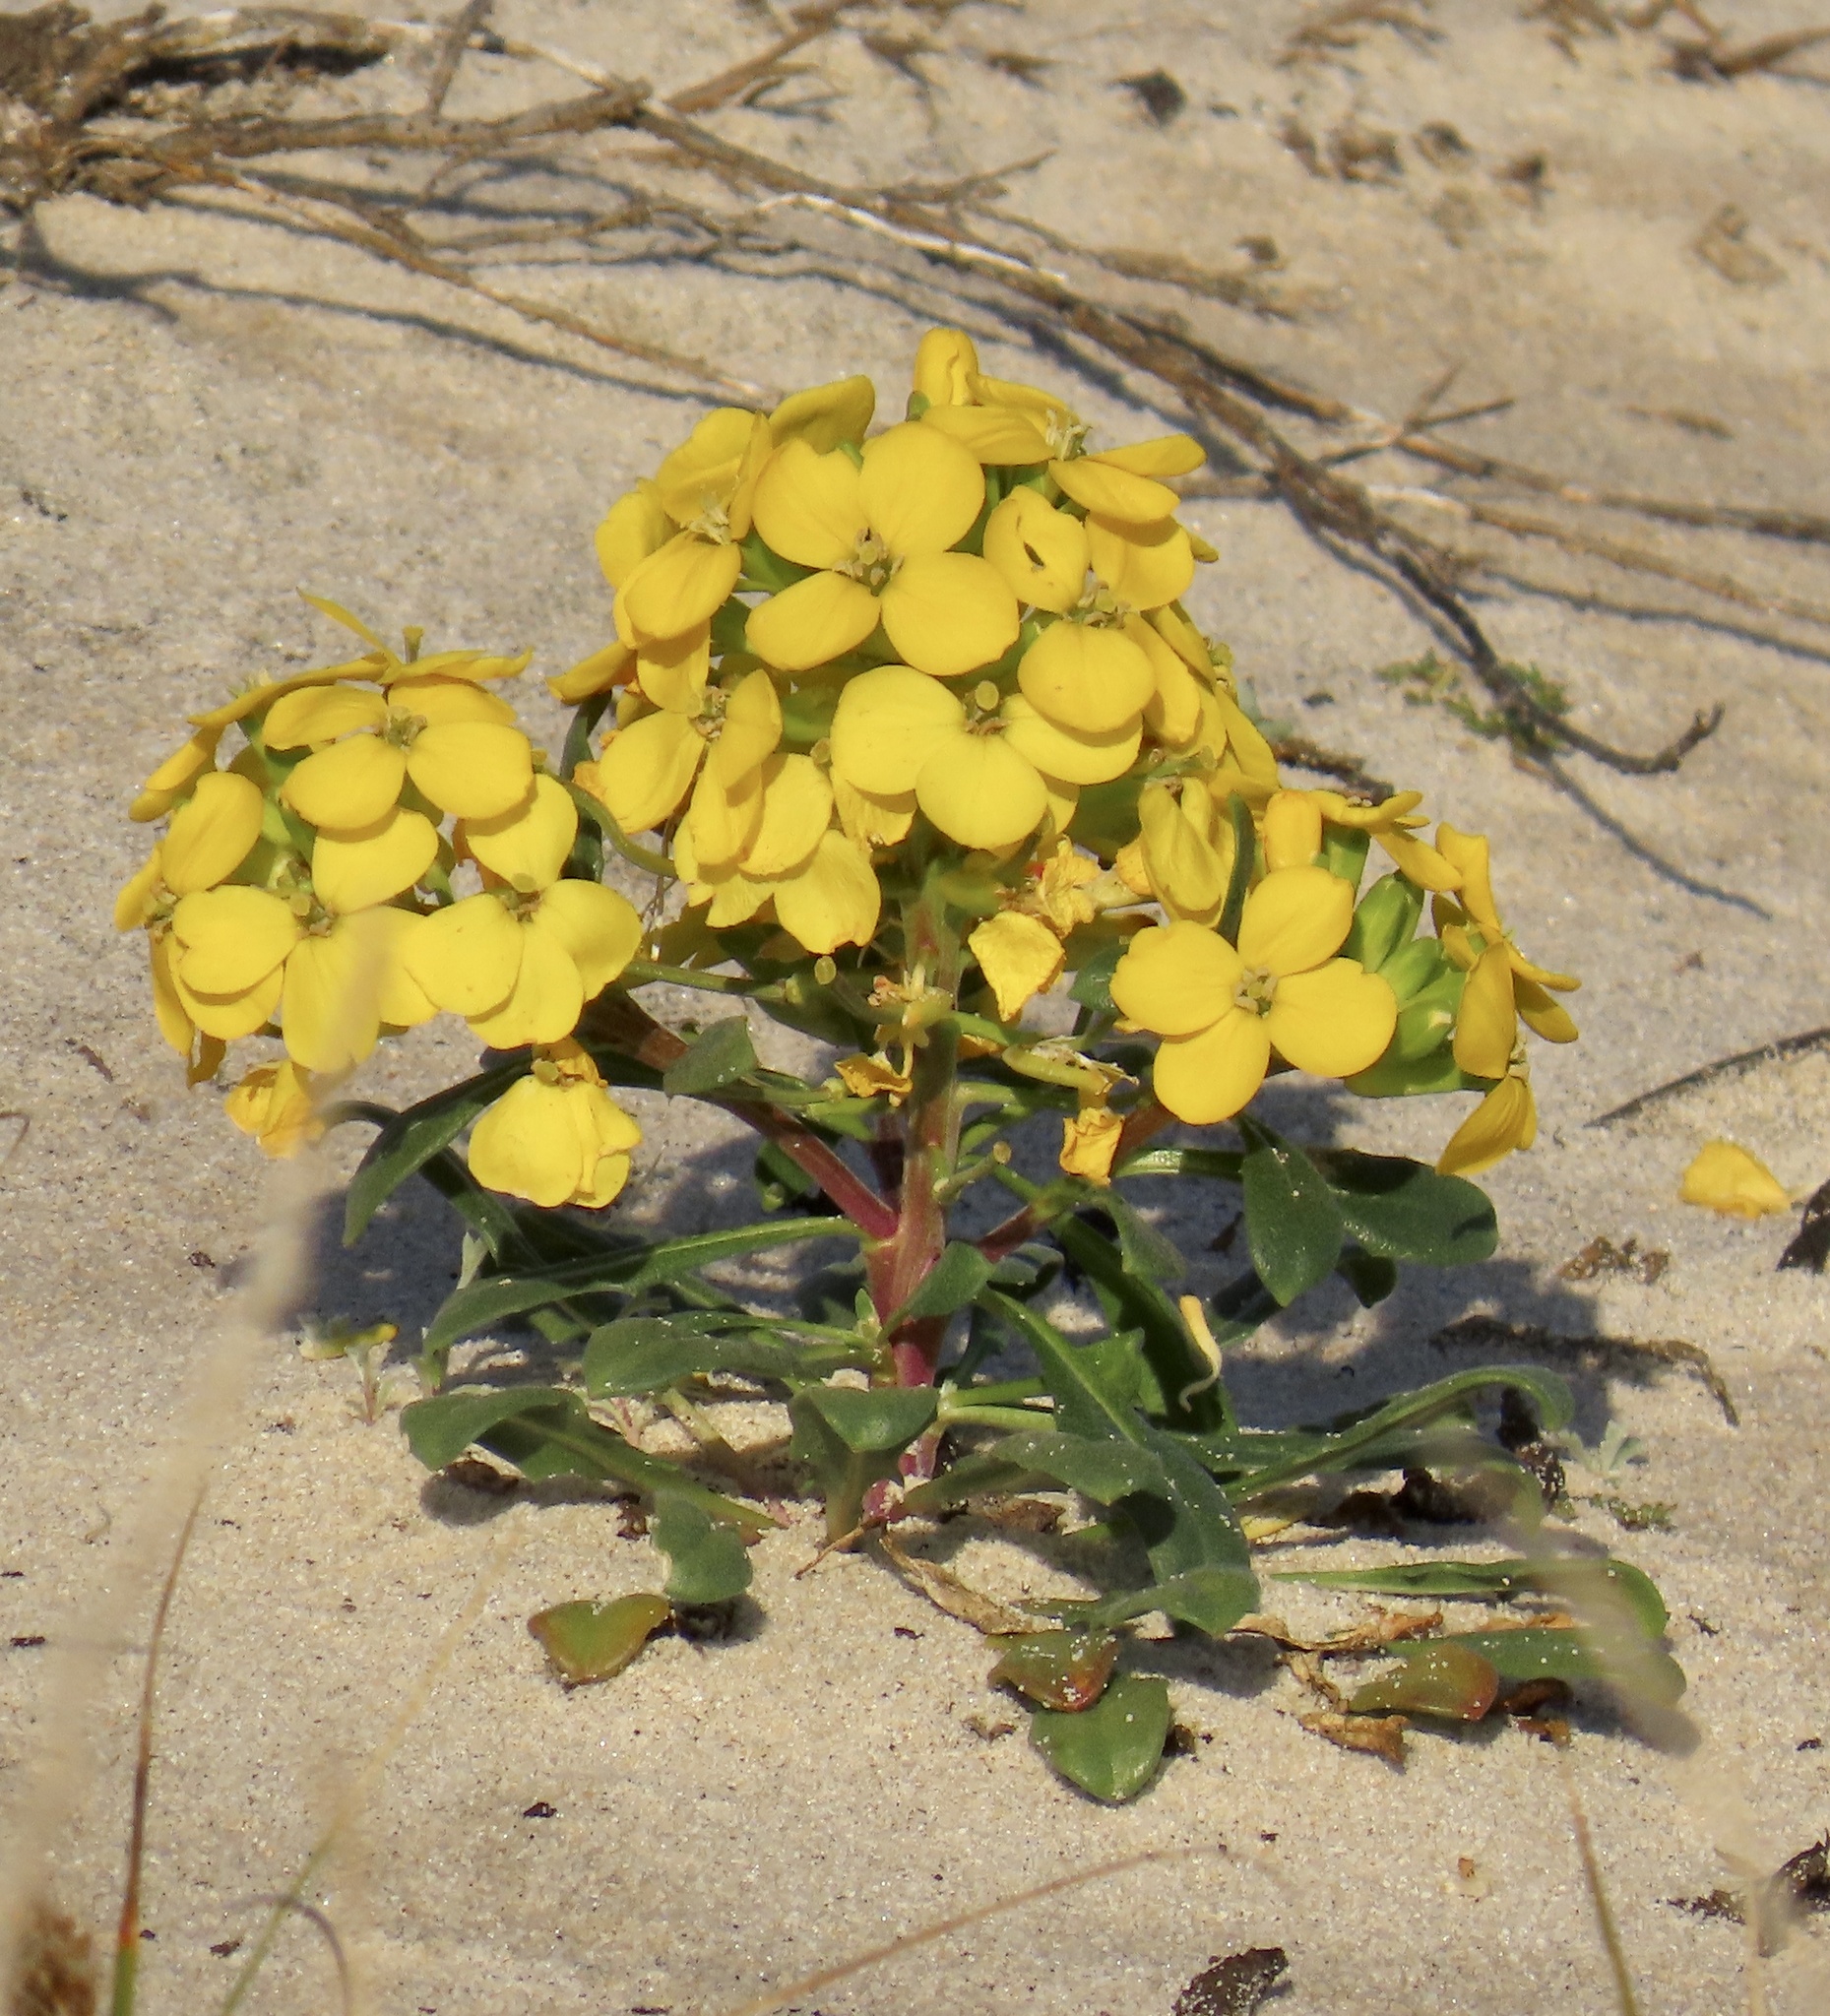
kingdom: Plantae
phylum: Tracheophyta
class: Magnoliopsida
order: Brassicales
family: Brassicaceae
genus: Erysimum
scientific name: Erysimum menziesii
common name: Menzies's wallflower
